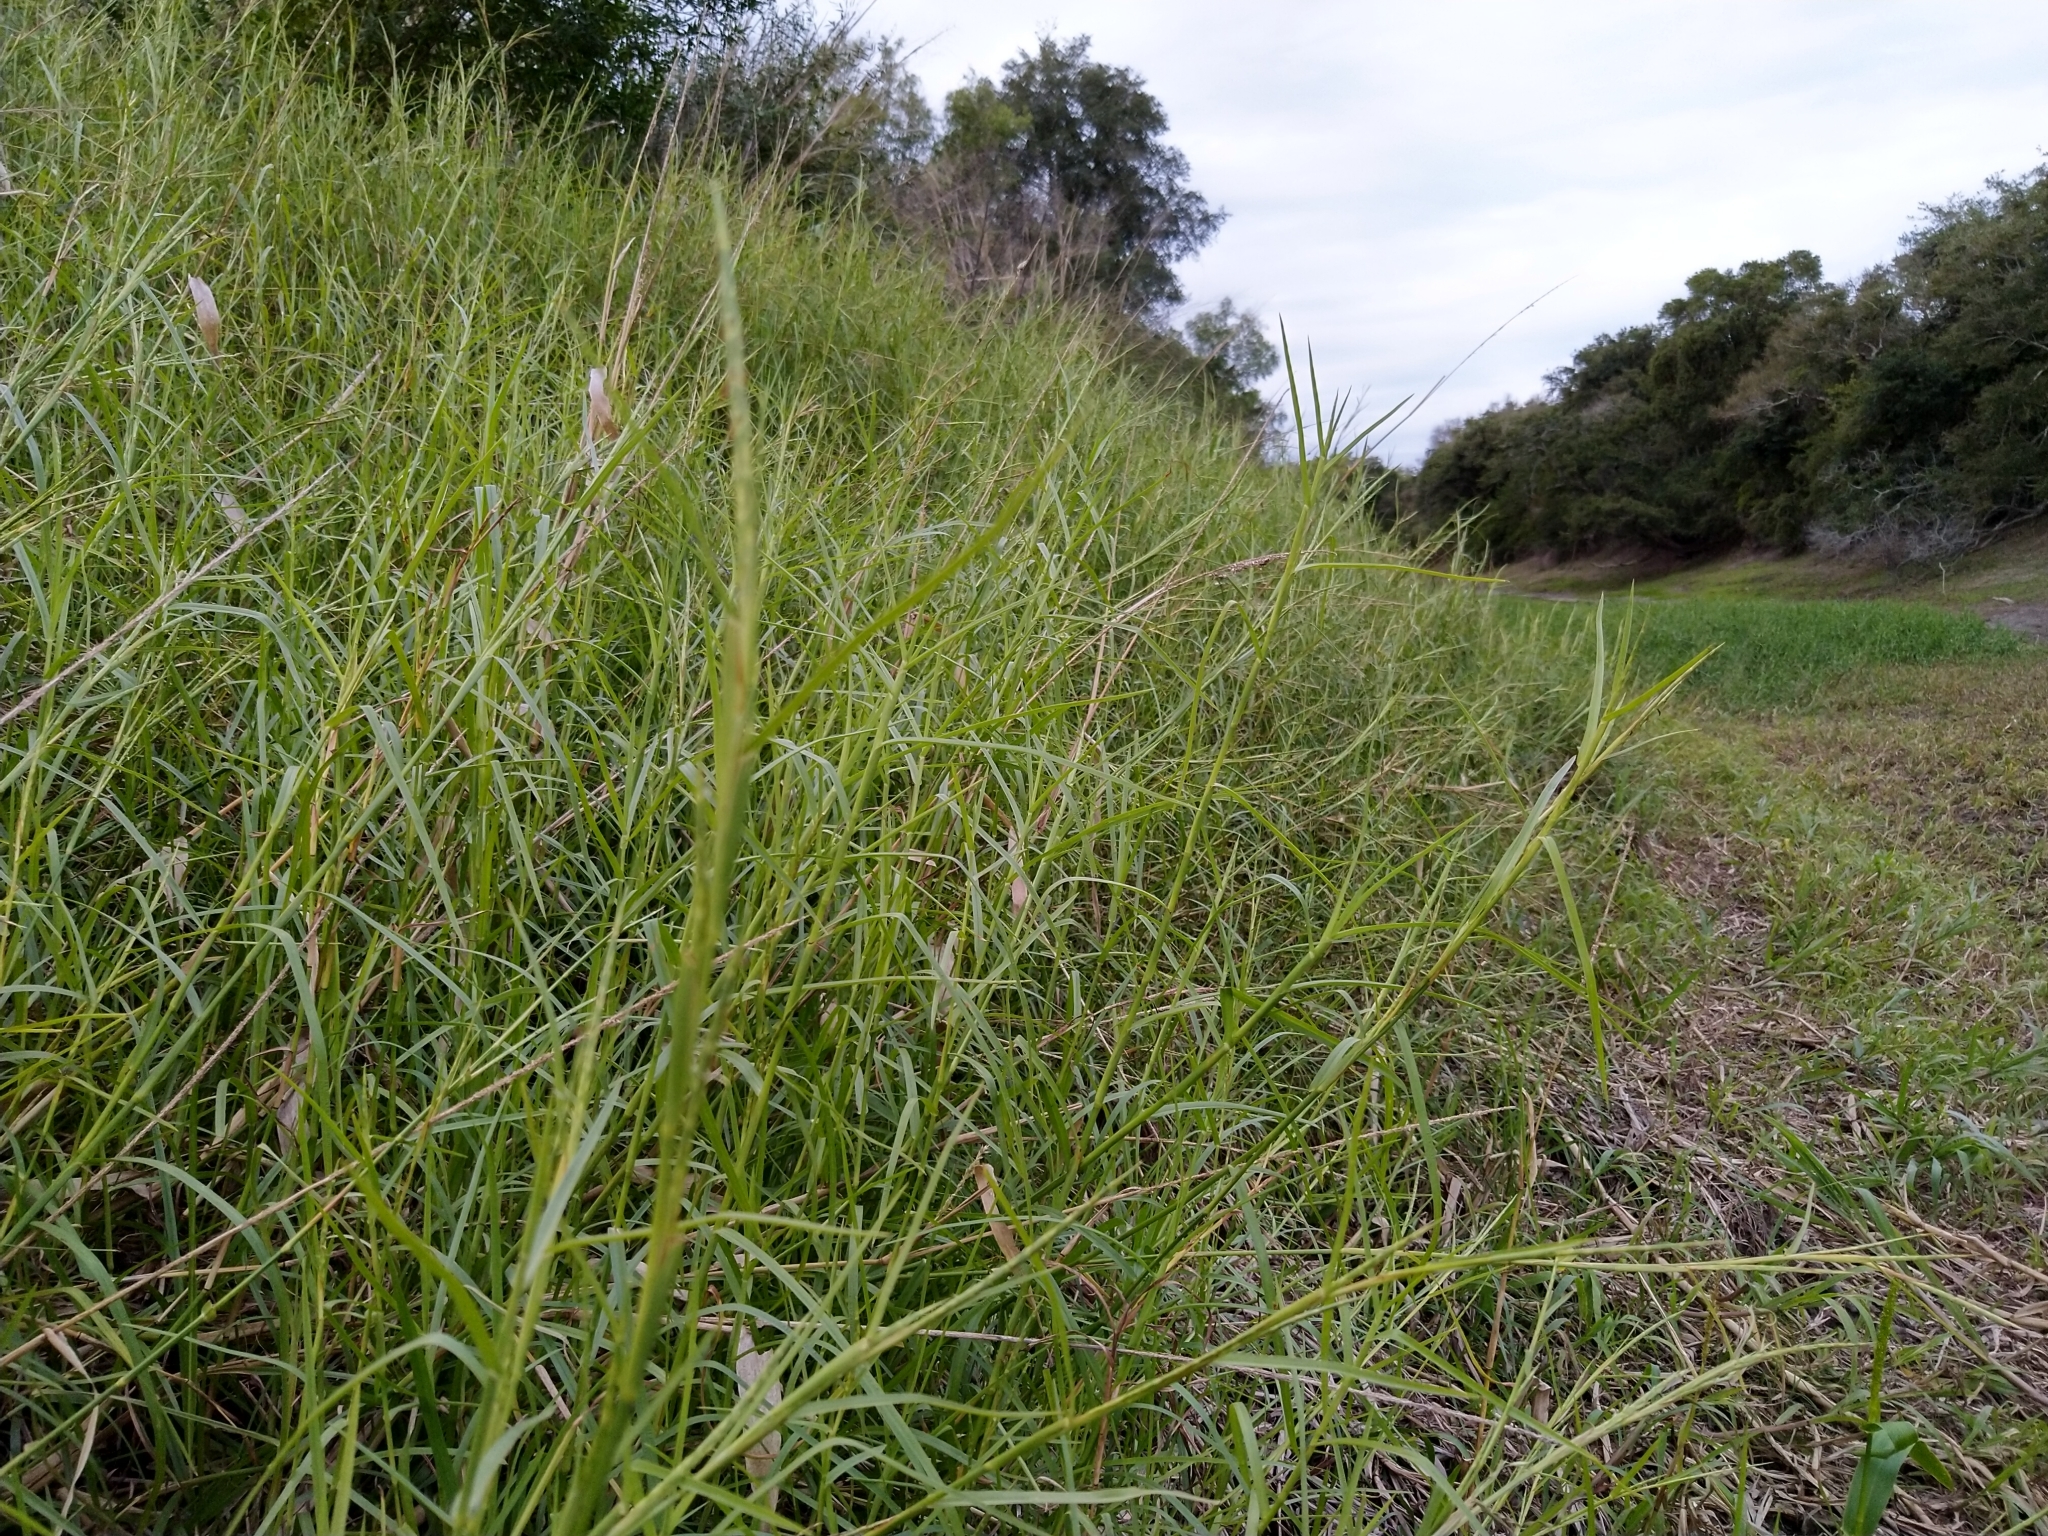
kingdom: Plantae
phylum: Tracheophyta
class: Liliopsida
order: Poales
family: Poaceae
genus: Hemarthria
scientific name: Hemarthria altissima
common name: African jointgrass
